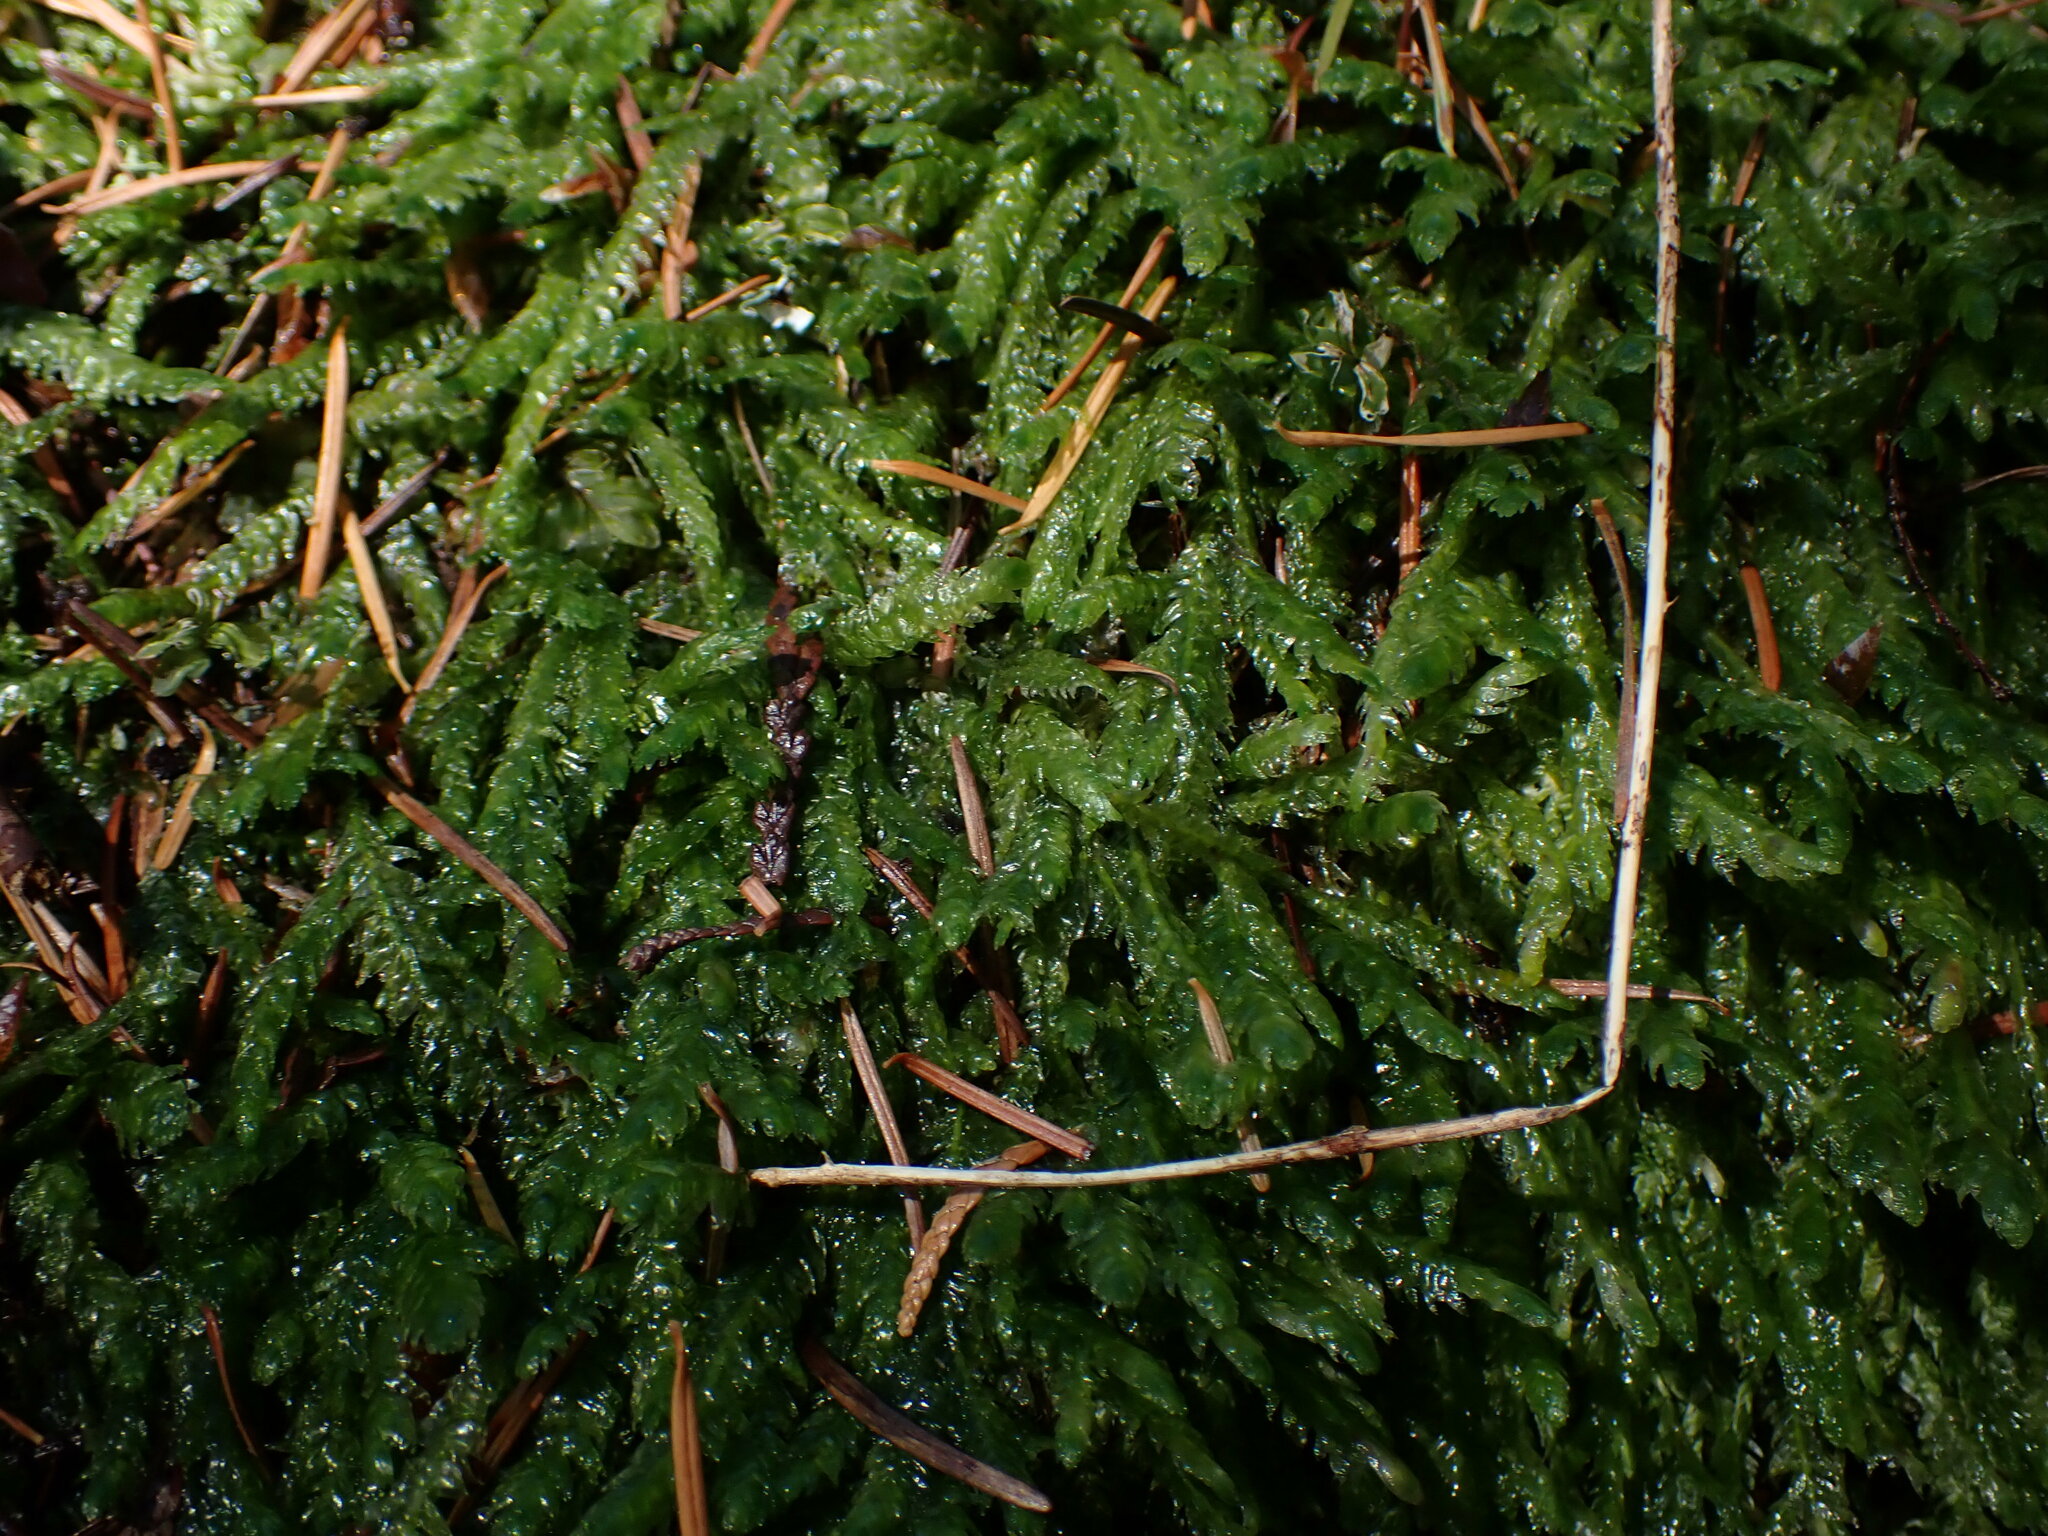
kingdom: Plantae
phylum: Bryophyta
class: Bryopsida
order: Hypnales
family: Plagiotheciaceae
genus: Plagiothecium
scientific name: Plagiothecium undulatum
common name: Waved silk-moss
